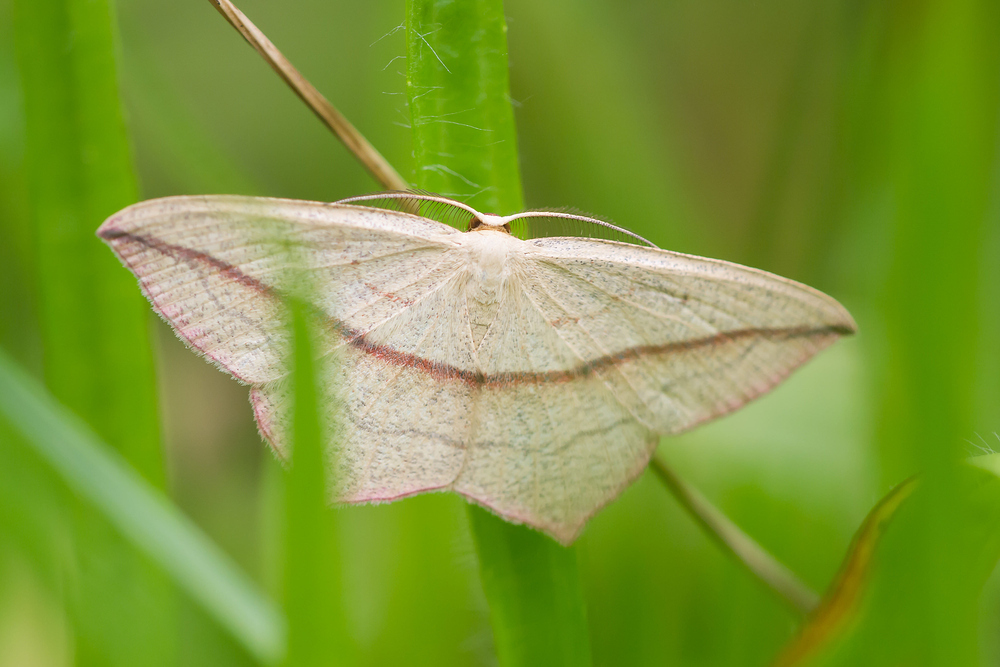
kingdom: Animalia
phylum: Arthropoda
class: Insecta
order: Lepidoptera
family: Geometridae
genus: Timandra
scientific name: Timandra comae
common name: Blood-vein
